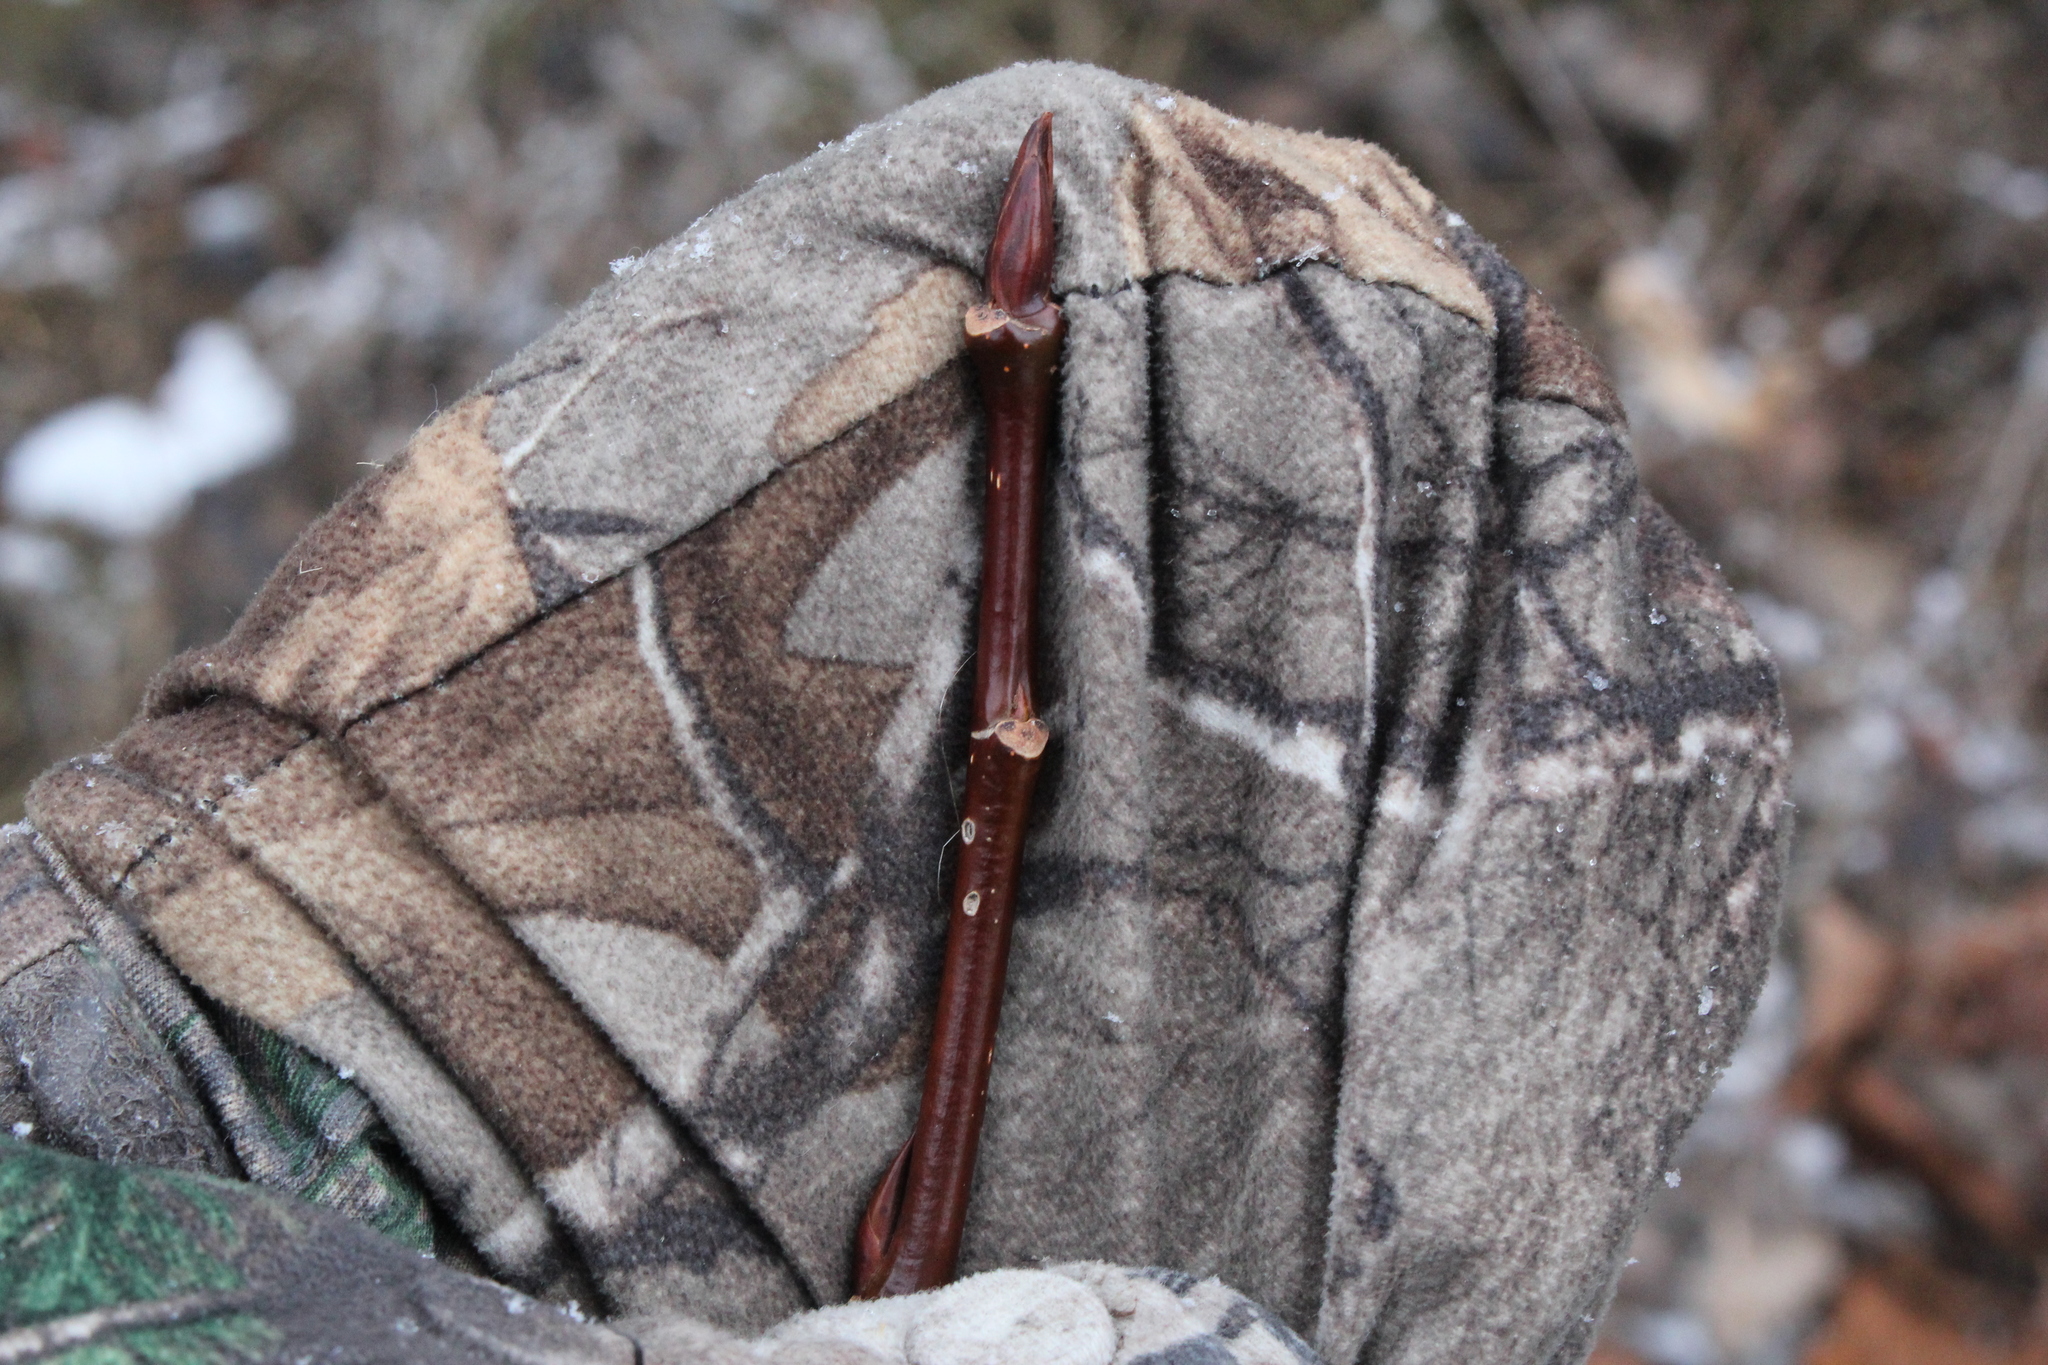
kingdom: Plantae
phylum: Tracheophyta
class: Magnoliopsida
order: Cucurbitales
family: Cucurbitaceae
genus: Echinocystis
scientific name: Echinocystis lobata
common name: Wild cucumber
